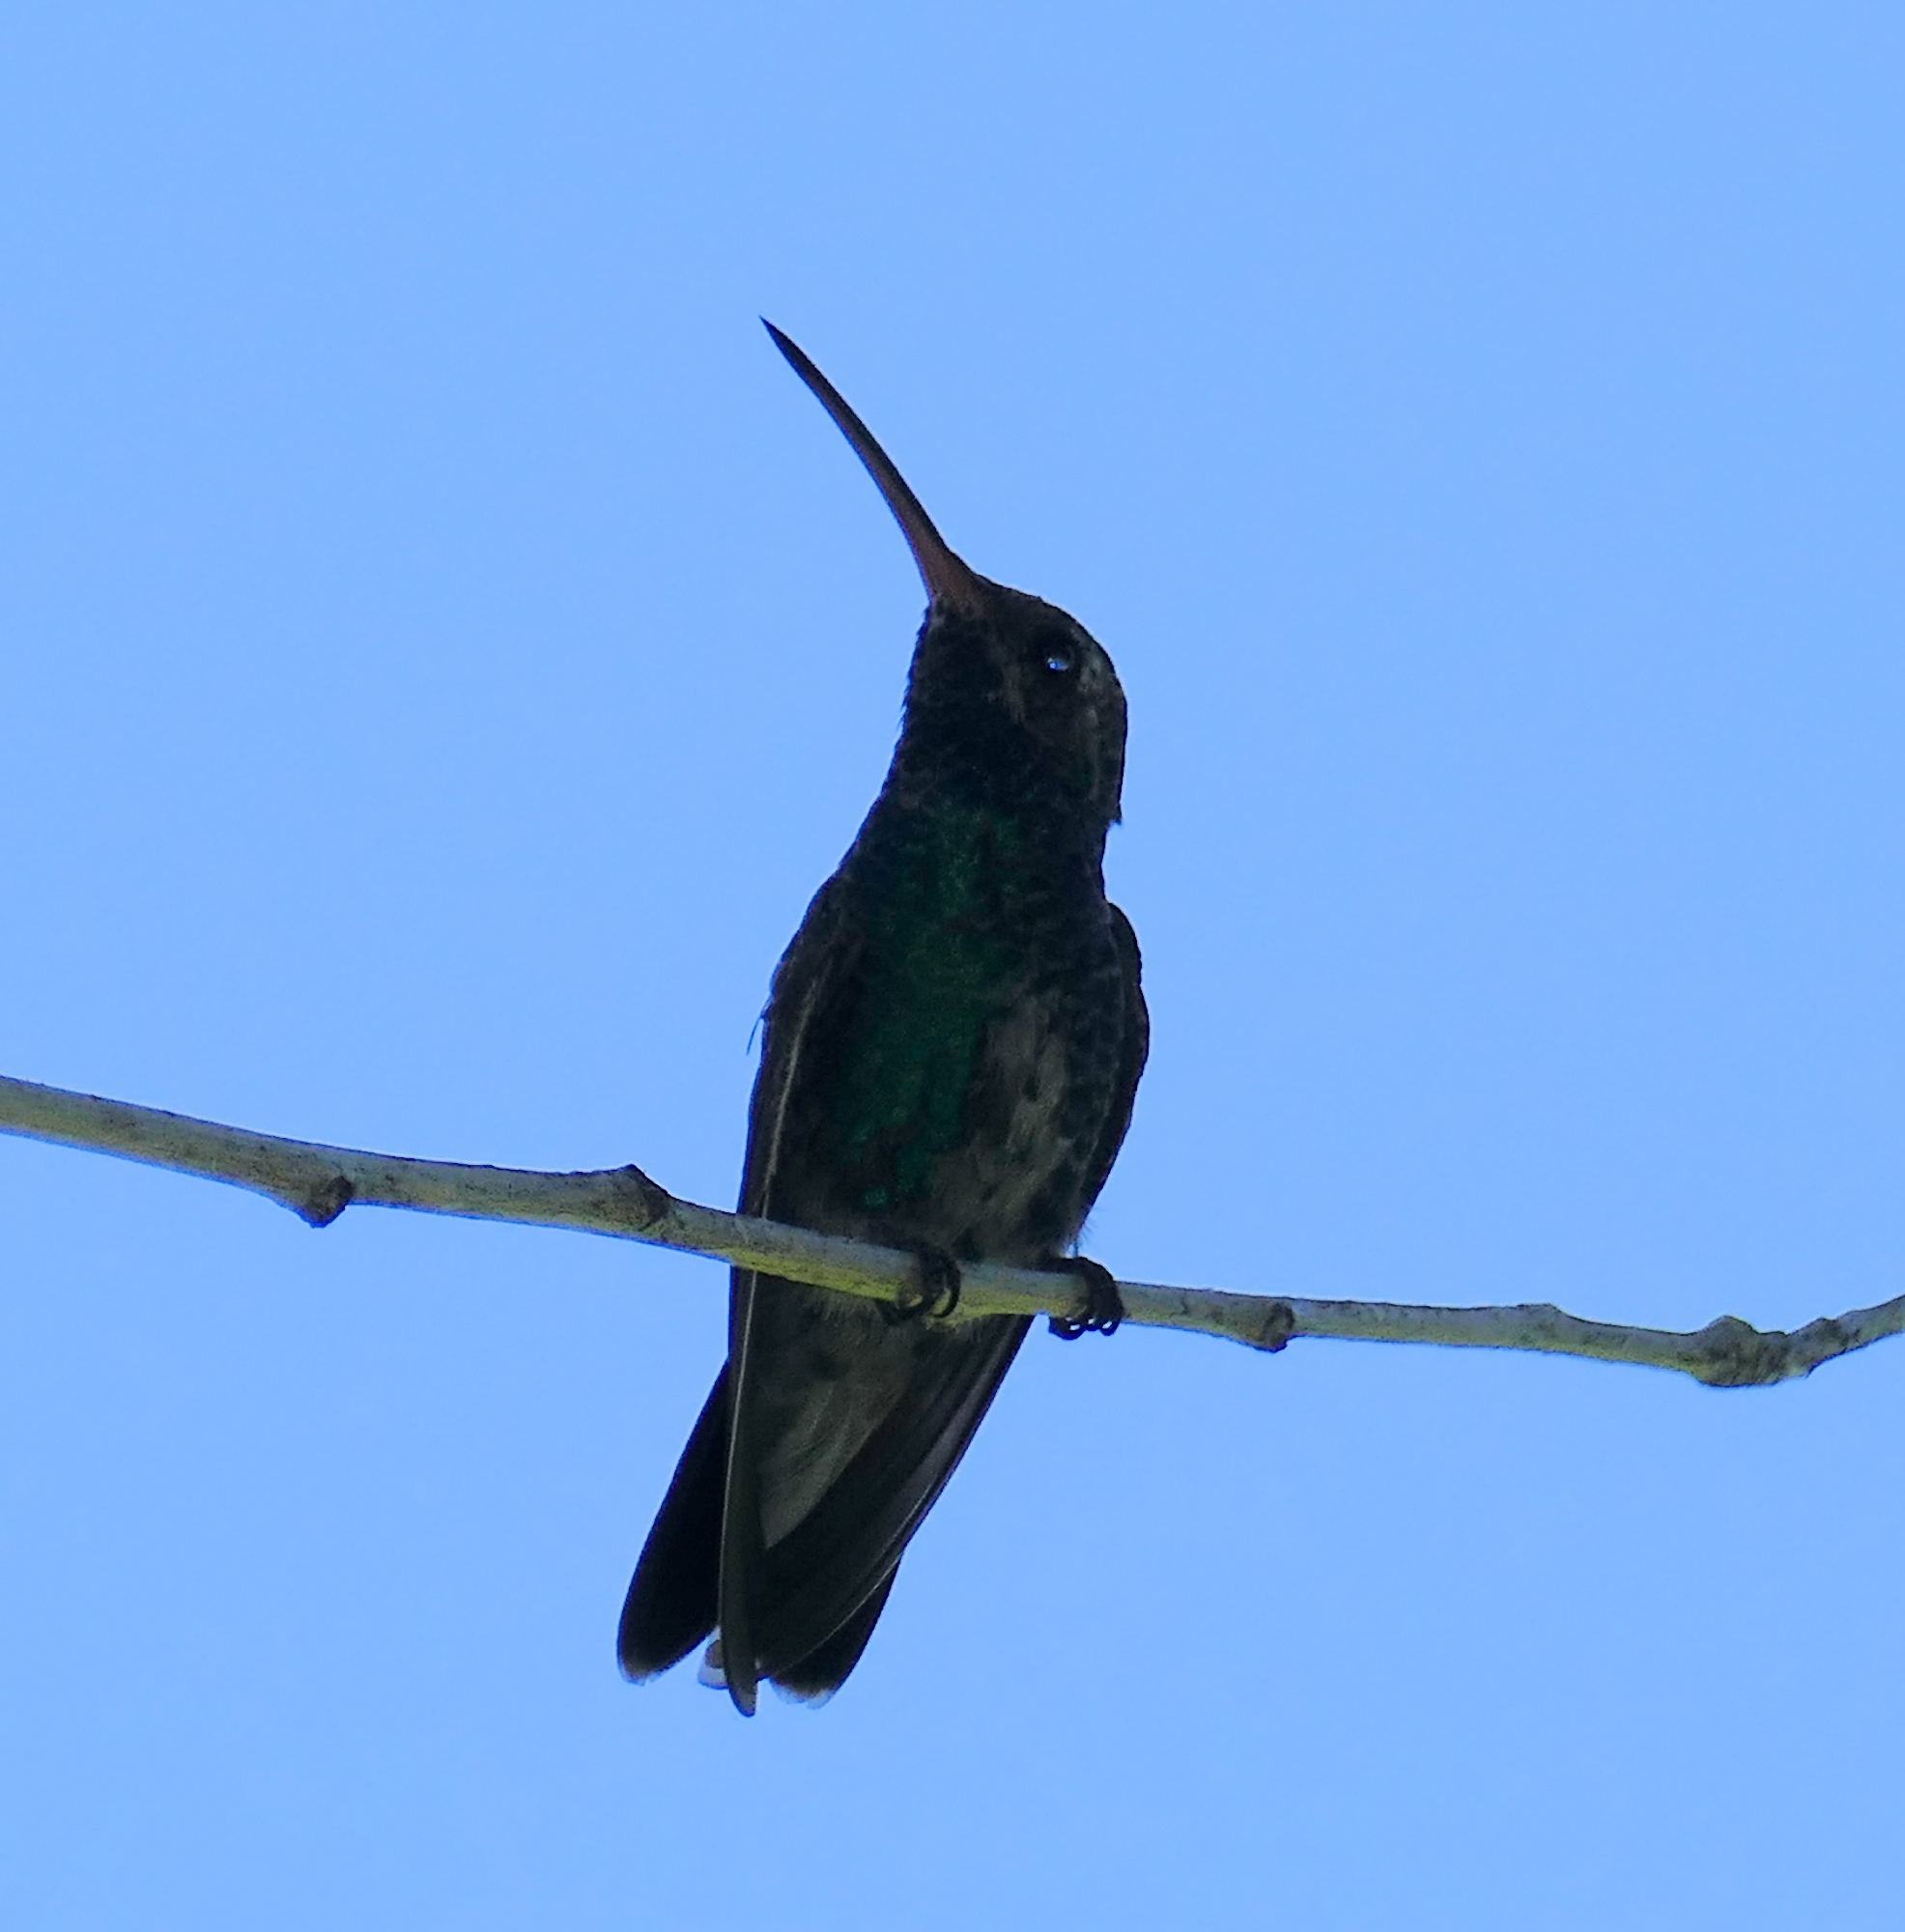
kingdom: Animalia
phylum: Chordata
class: Aves
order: Apodiformes
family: Trochilidae
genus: Cynanthus
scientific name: Cynanthus latirostris
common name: Broad-billed hummingbird
